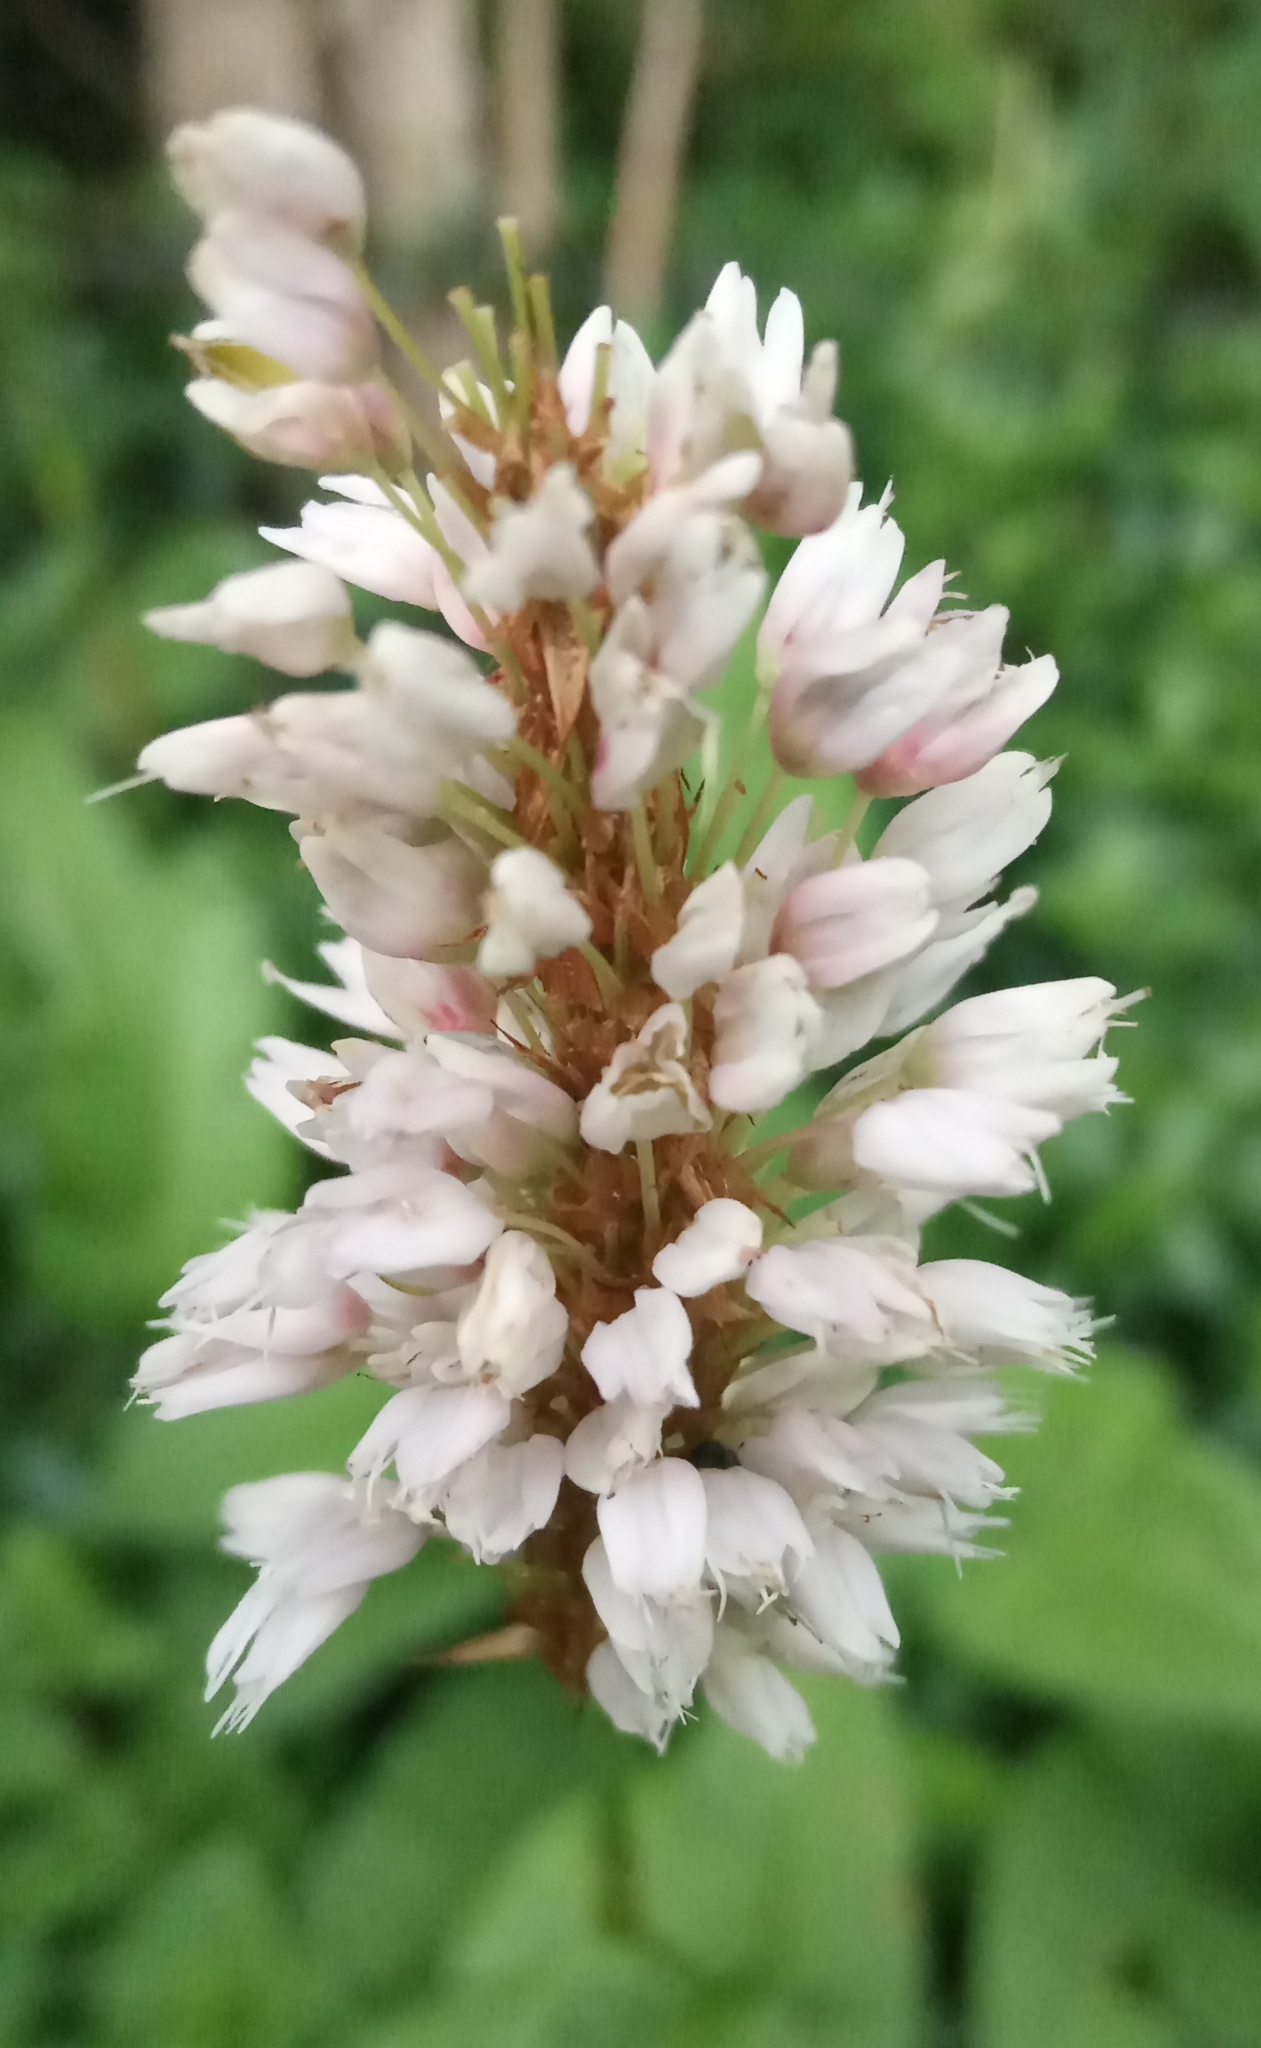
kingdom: Plantae
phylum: Tracheophyta
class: Magnoliopsida
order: Caryophyllales
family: Polygonaceae
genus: Bistorta
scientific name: Bistorta officinalis
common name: Common bistort
